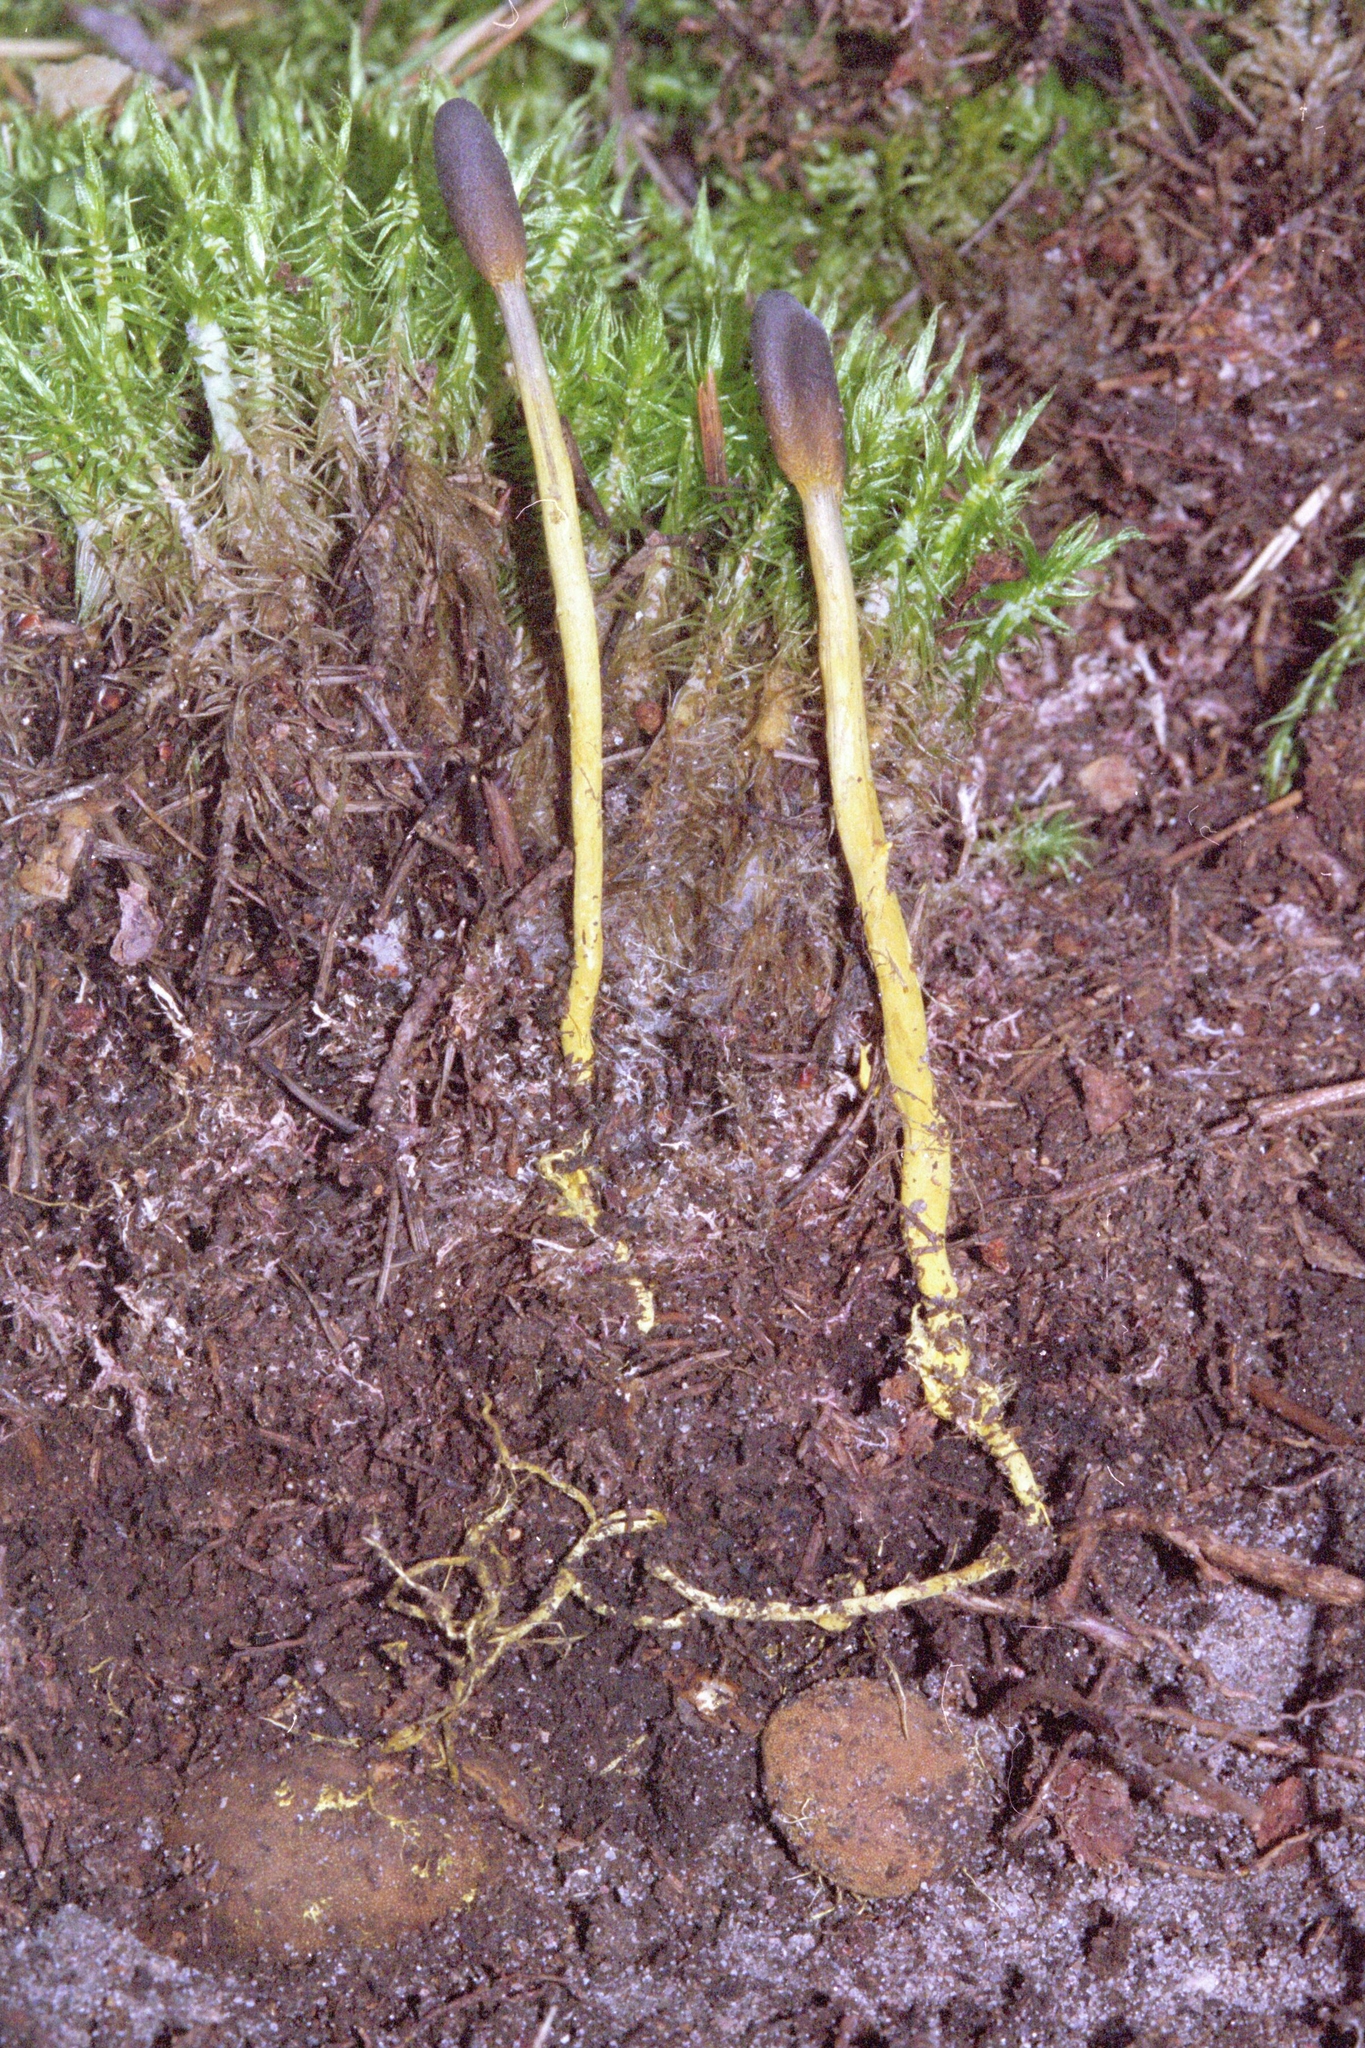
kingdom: Fungi
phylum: Ascomycota
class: Sordariomycetes
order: Hypocreales
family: Ophiocordycipitaceae
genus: Tolypocladium
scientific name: Tolypocladium ophioglossoides
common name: Snaketongue truffleclub
